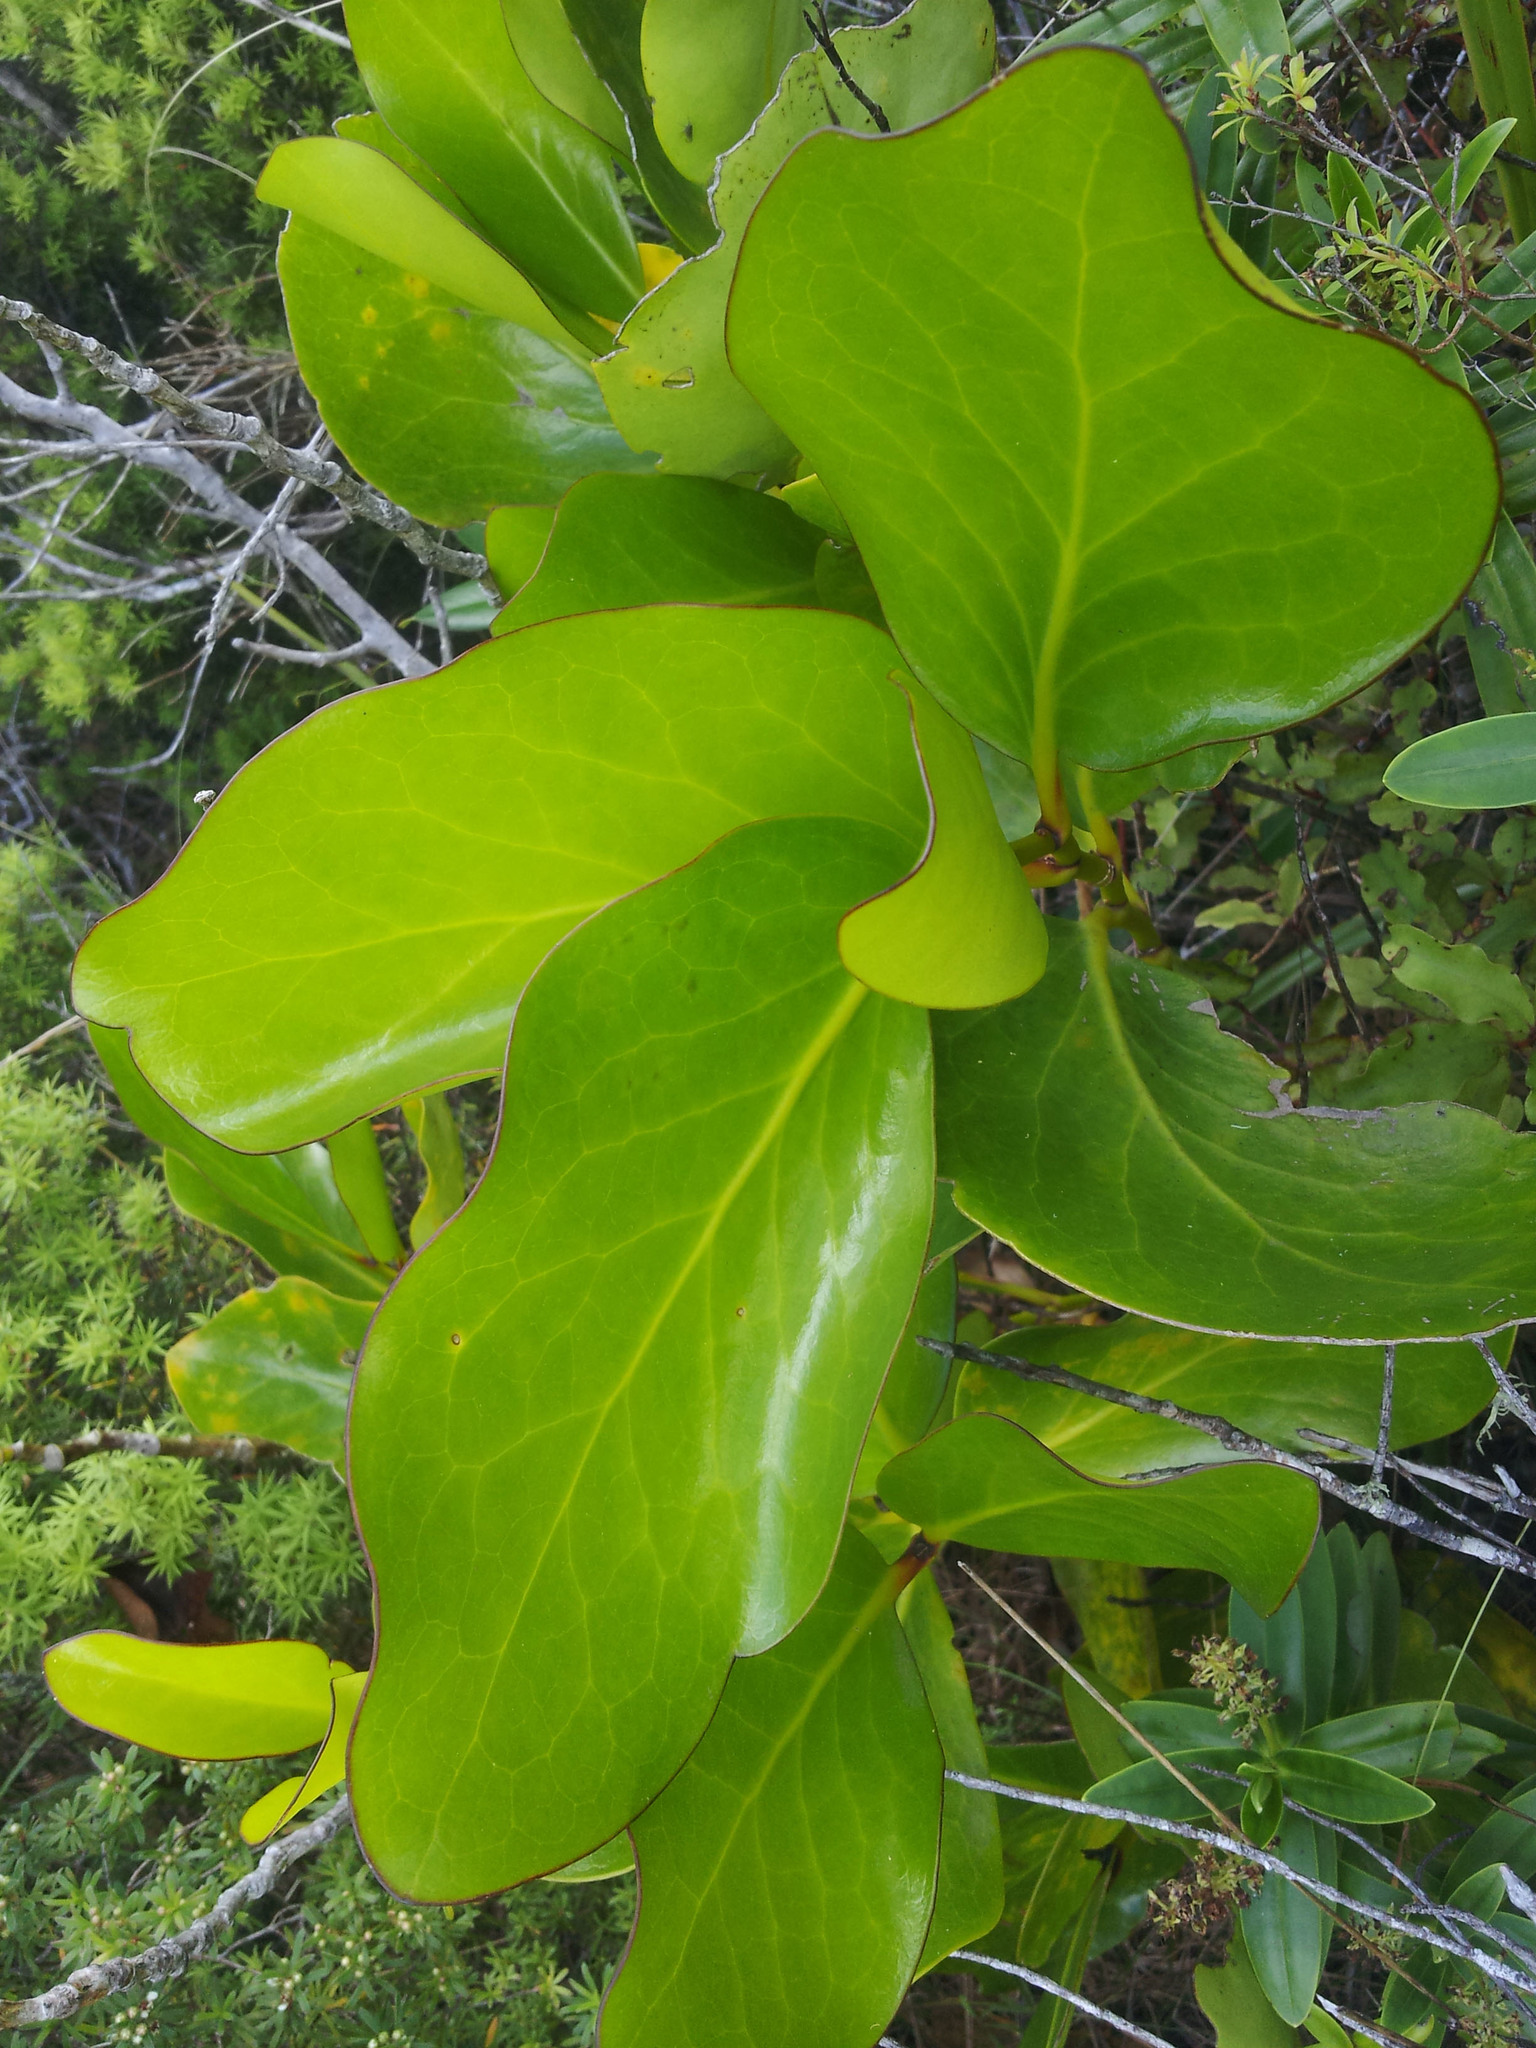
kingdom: Plantae
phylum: Tracheophyta
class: Magnoliopsida
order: Apiales
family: Griseliniaceae
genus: Griselinia
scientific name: Griselinia lucida
